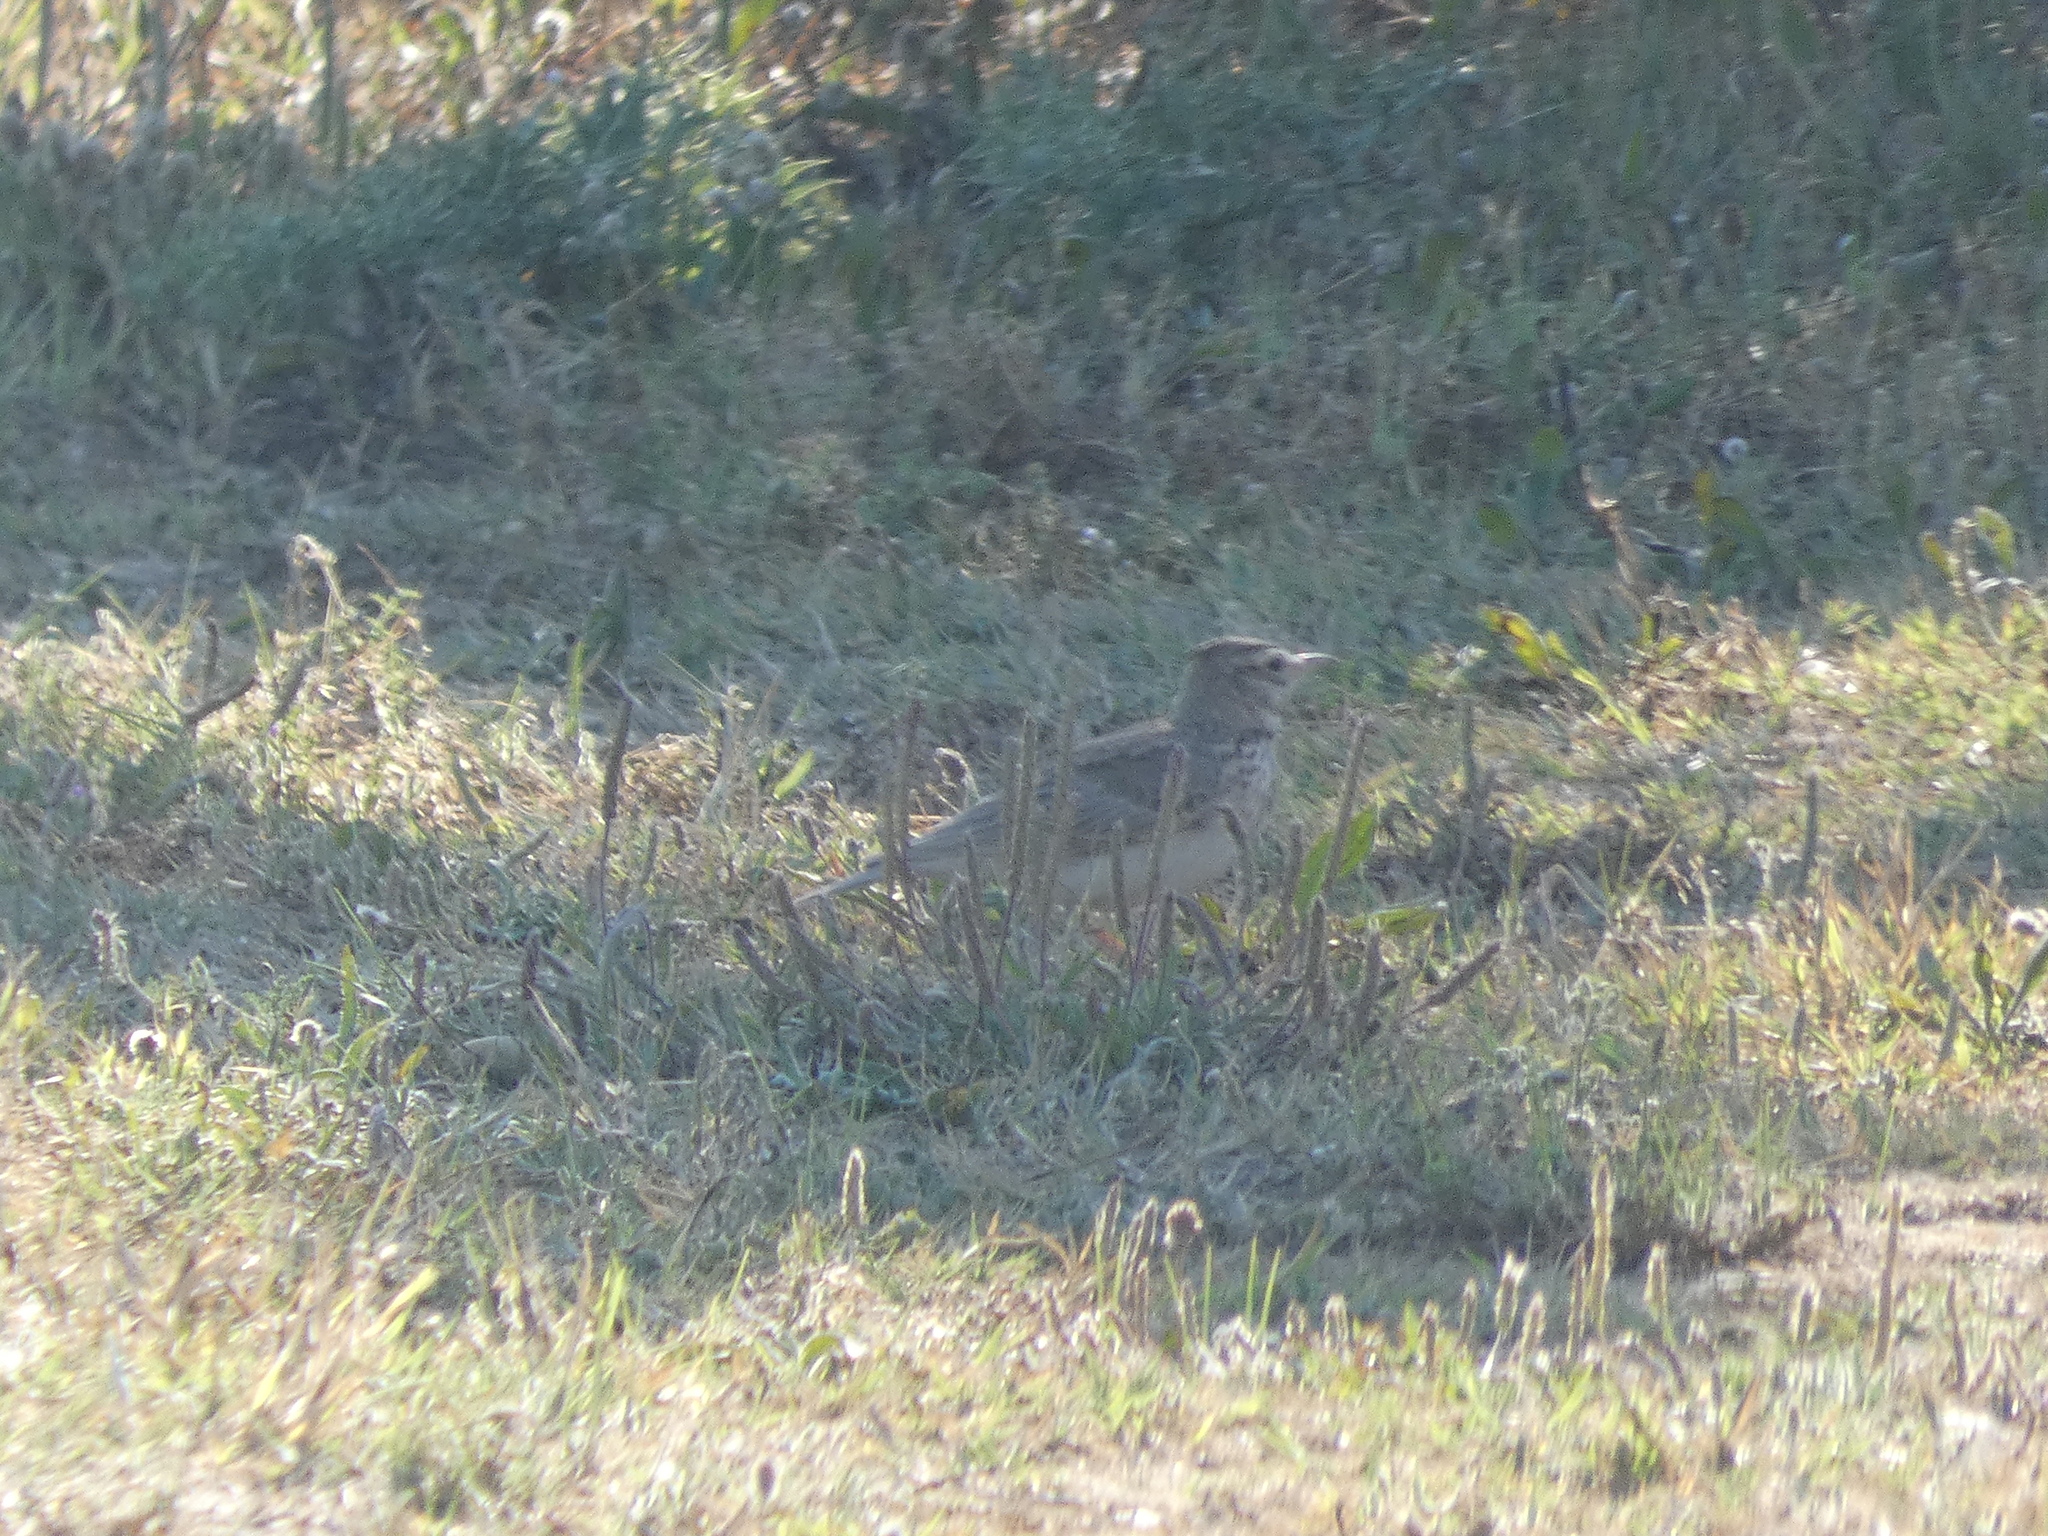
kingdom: Animalia
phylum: Chordata
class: Aves
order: Passeriformes
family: Alaudidae
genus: Galerida
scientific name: Galerida cristata
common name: Crested lark
